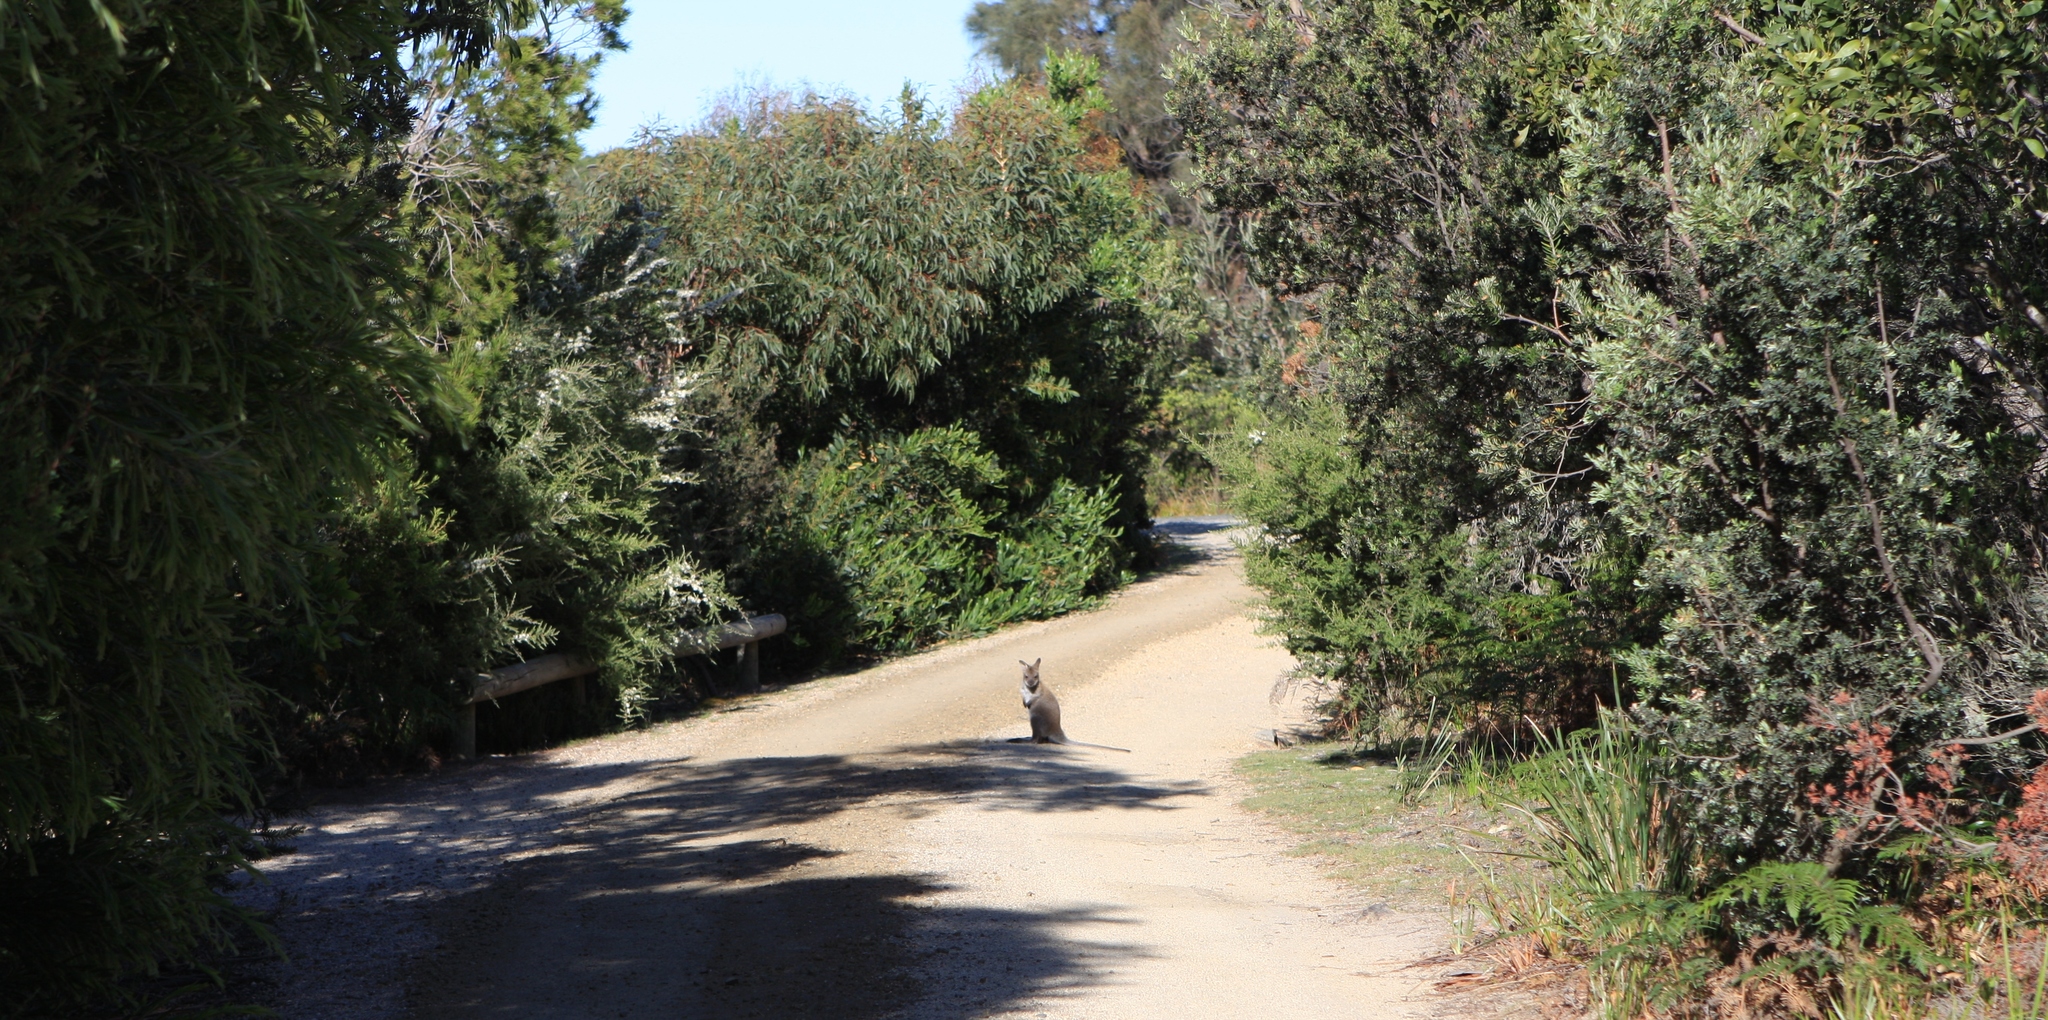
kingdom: Animalia
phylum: Chordata
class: Mammalia
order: Diprotodontia
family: Macropodidae
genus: Notamacropus
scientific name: Notamacropus rufogriseus
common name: Red-necked wallaby
